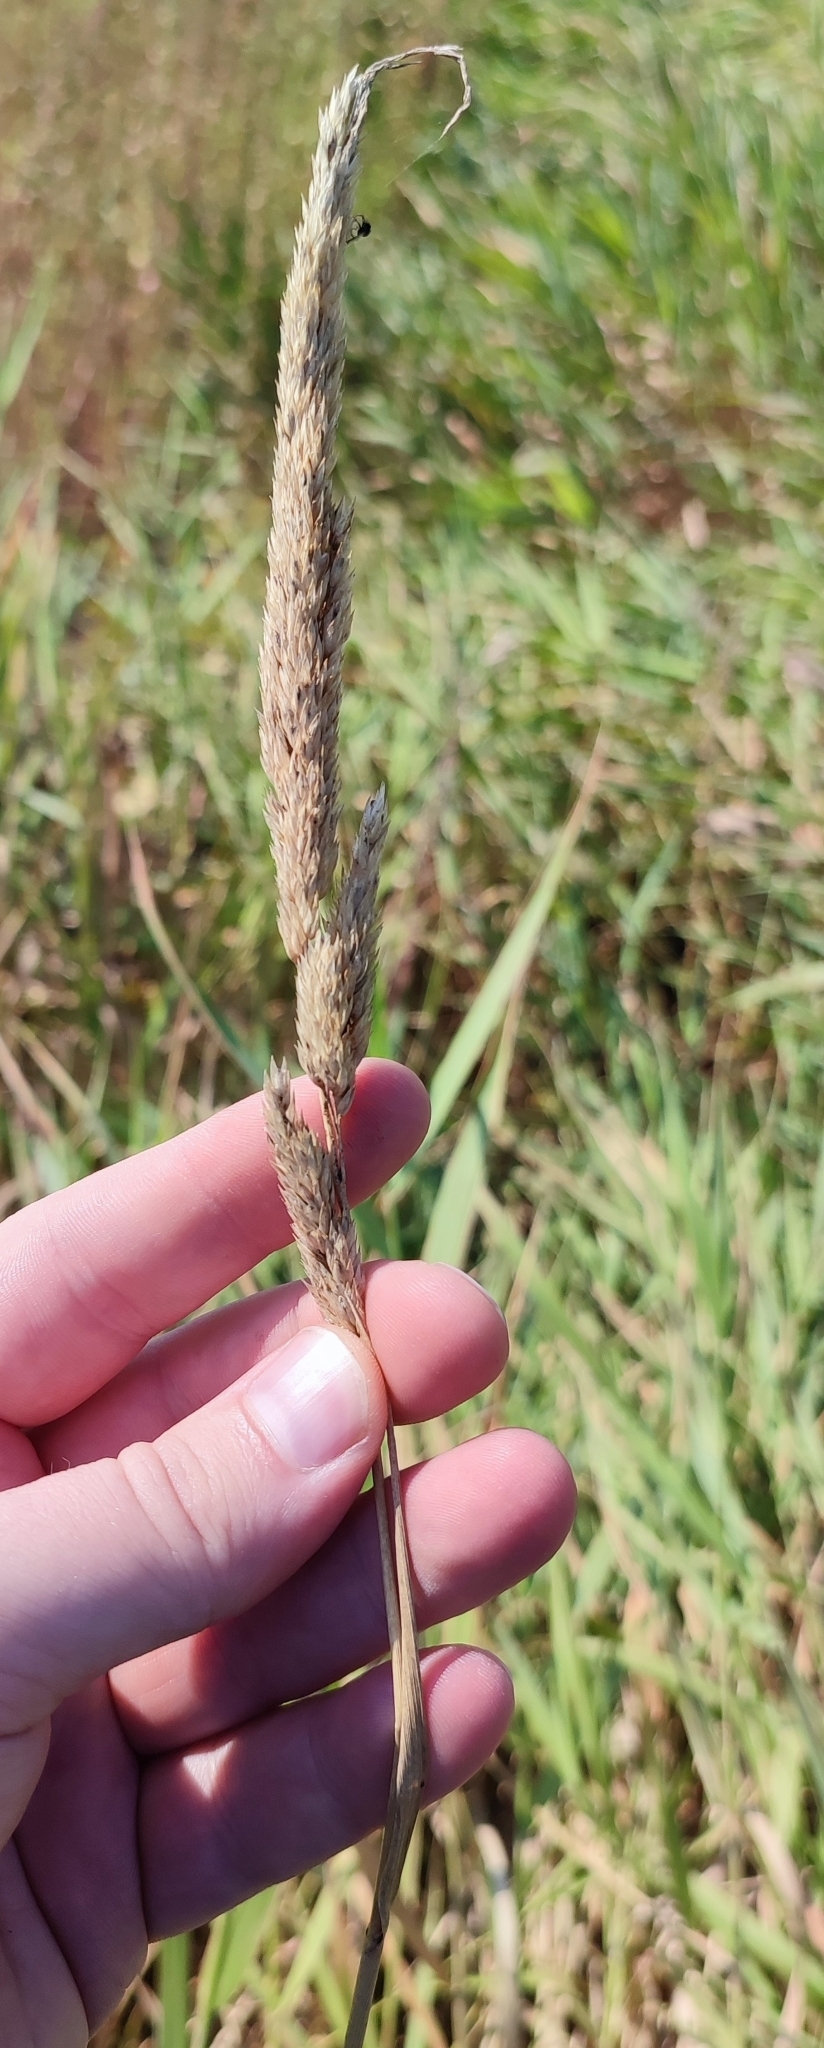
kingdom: Plantae
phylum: Tracheophyta
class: Liliopsida
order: Poales
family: Poaceae
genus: Phalaris
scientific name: Phalaris arundinacea
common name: Reed canary-grass
